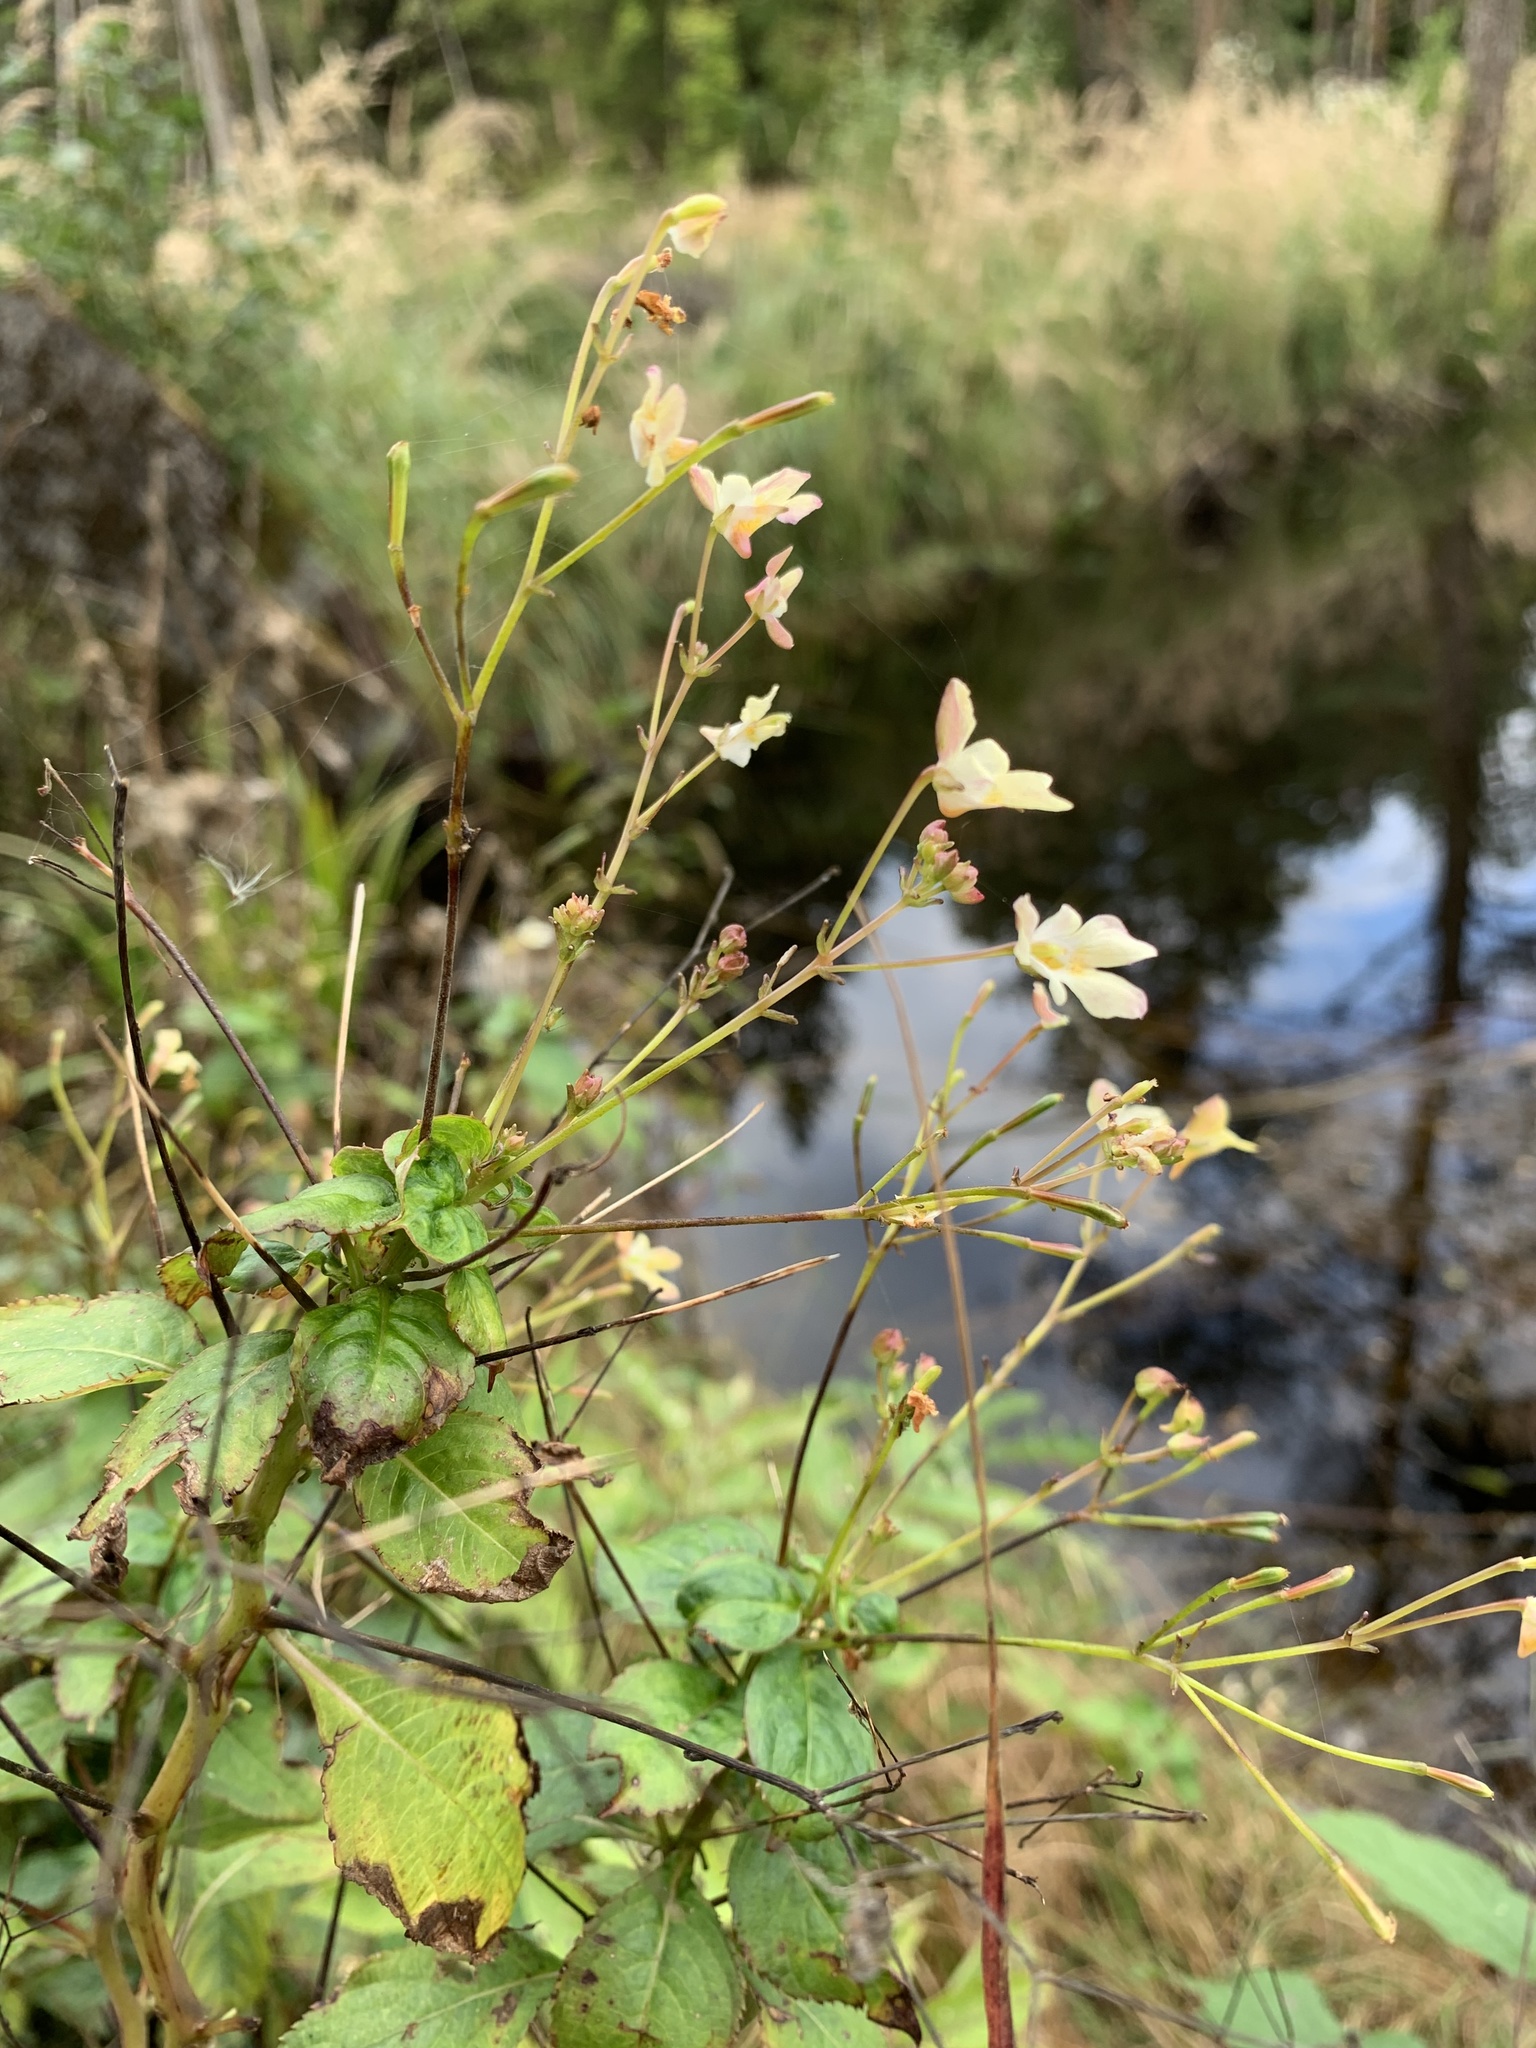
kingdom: Plantae
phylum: Tracheophyta
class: Magnoliopsida
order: Ericales
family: Balsaminaceae
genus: Impatiens
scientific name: Impatiens parviflora
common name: Small balsam
